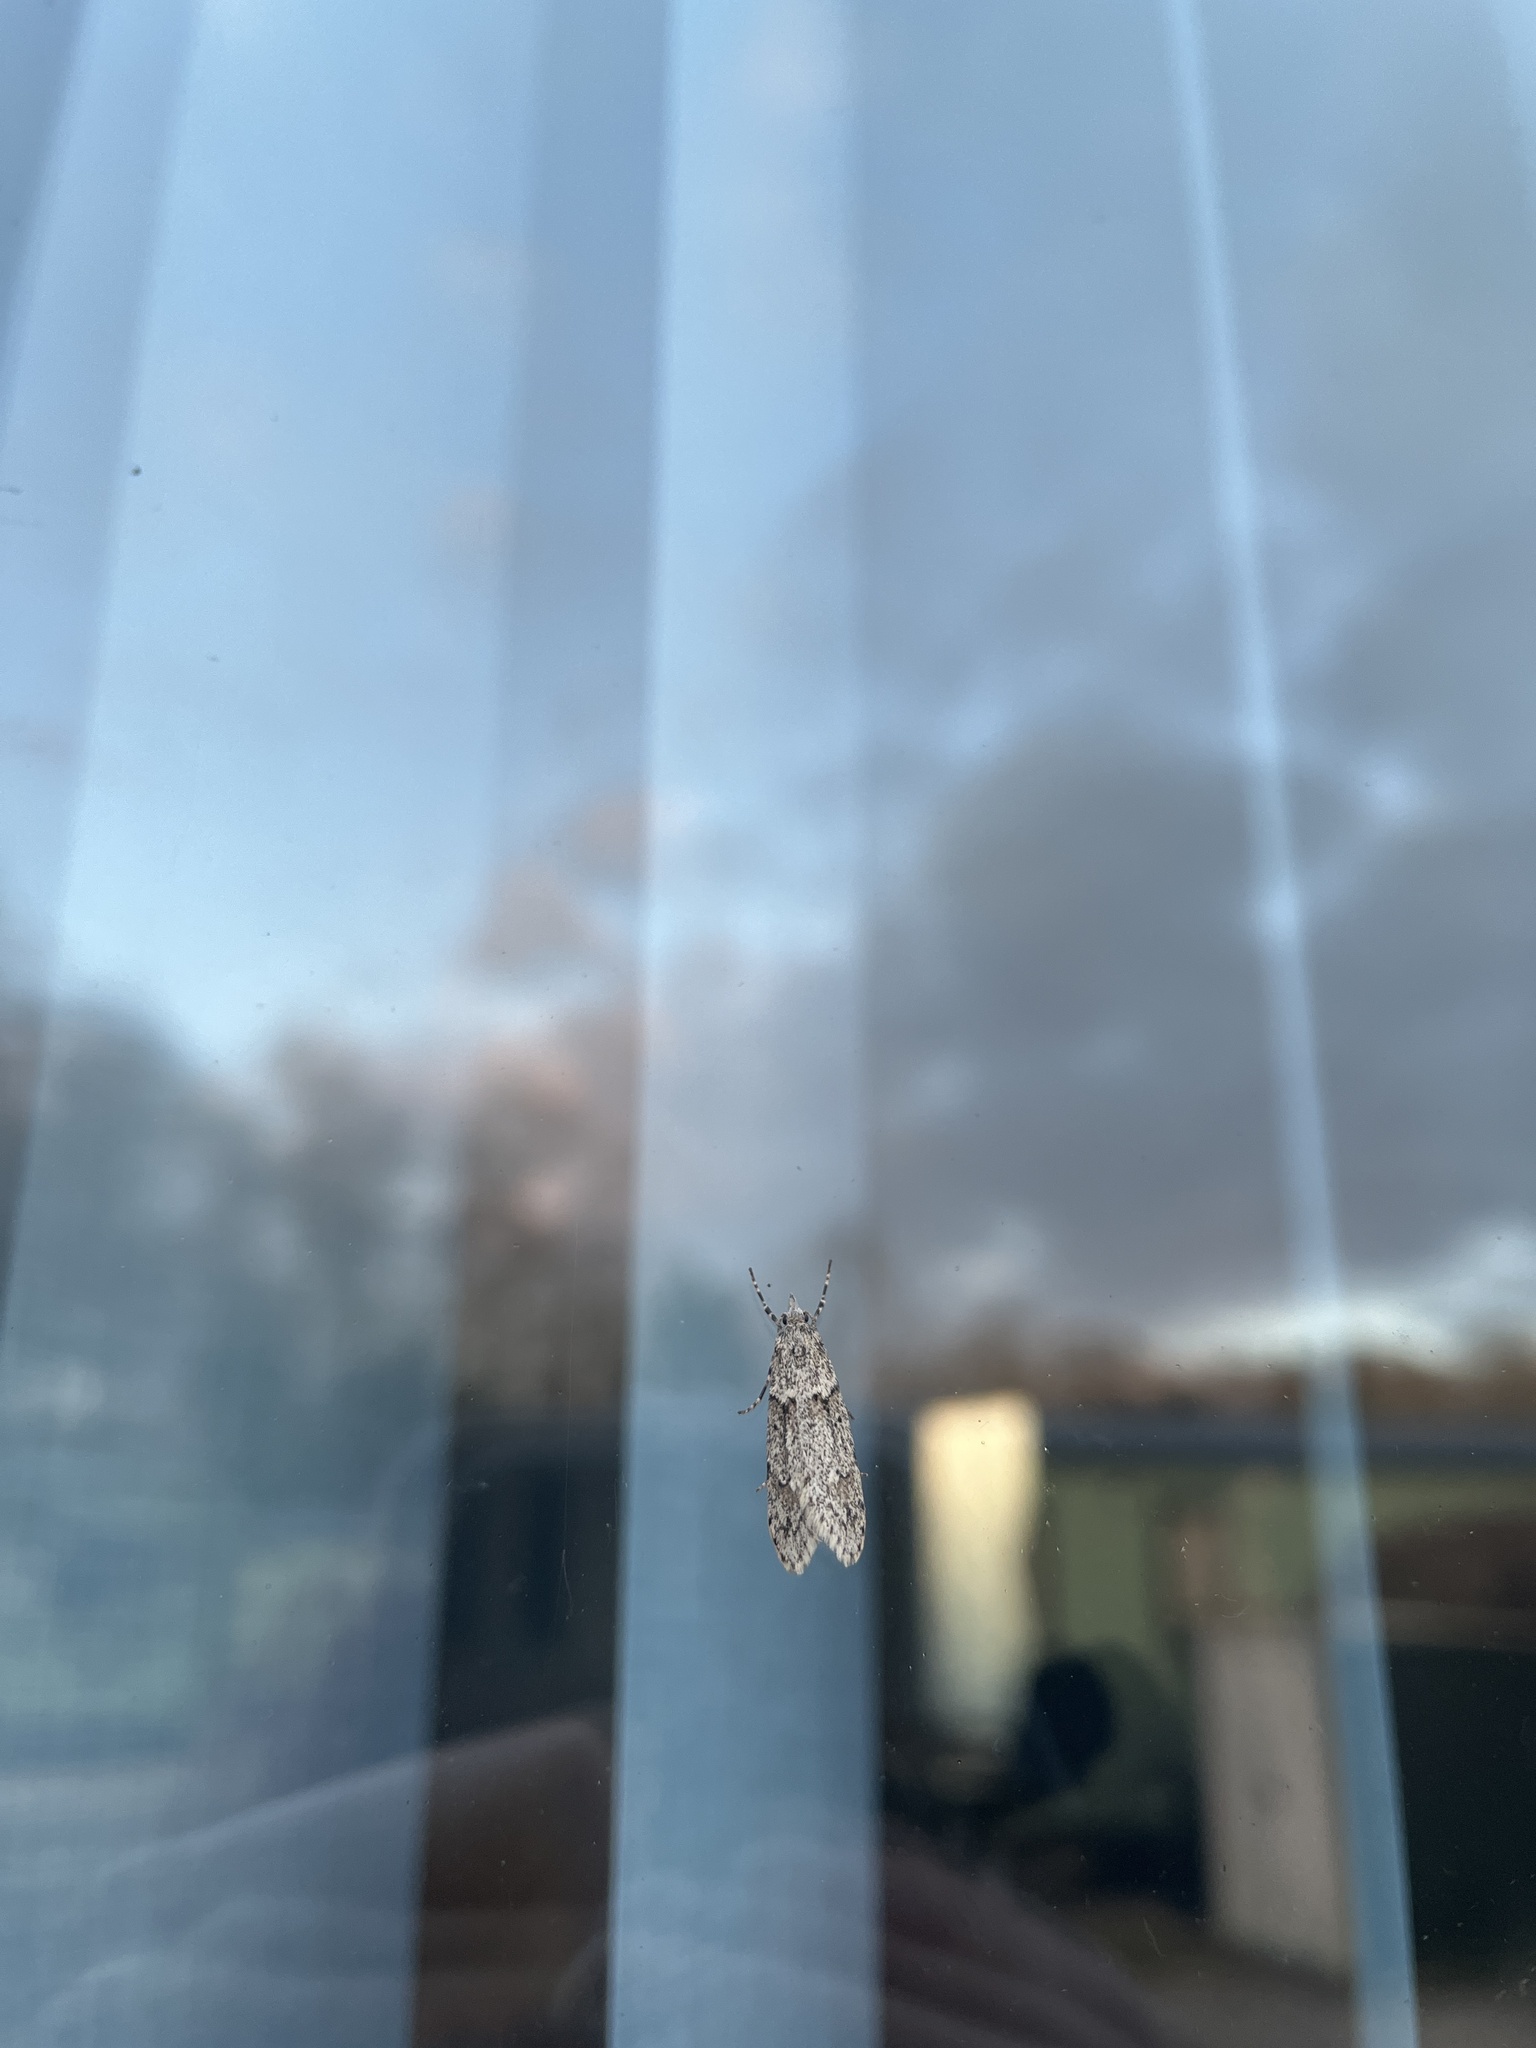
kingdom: Animalia
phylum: Arthropoda
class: Insecta
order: Lepidoptera
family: Lypusidae
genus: Diurnea
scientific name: Diurnea fagella
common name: March tubic
